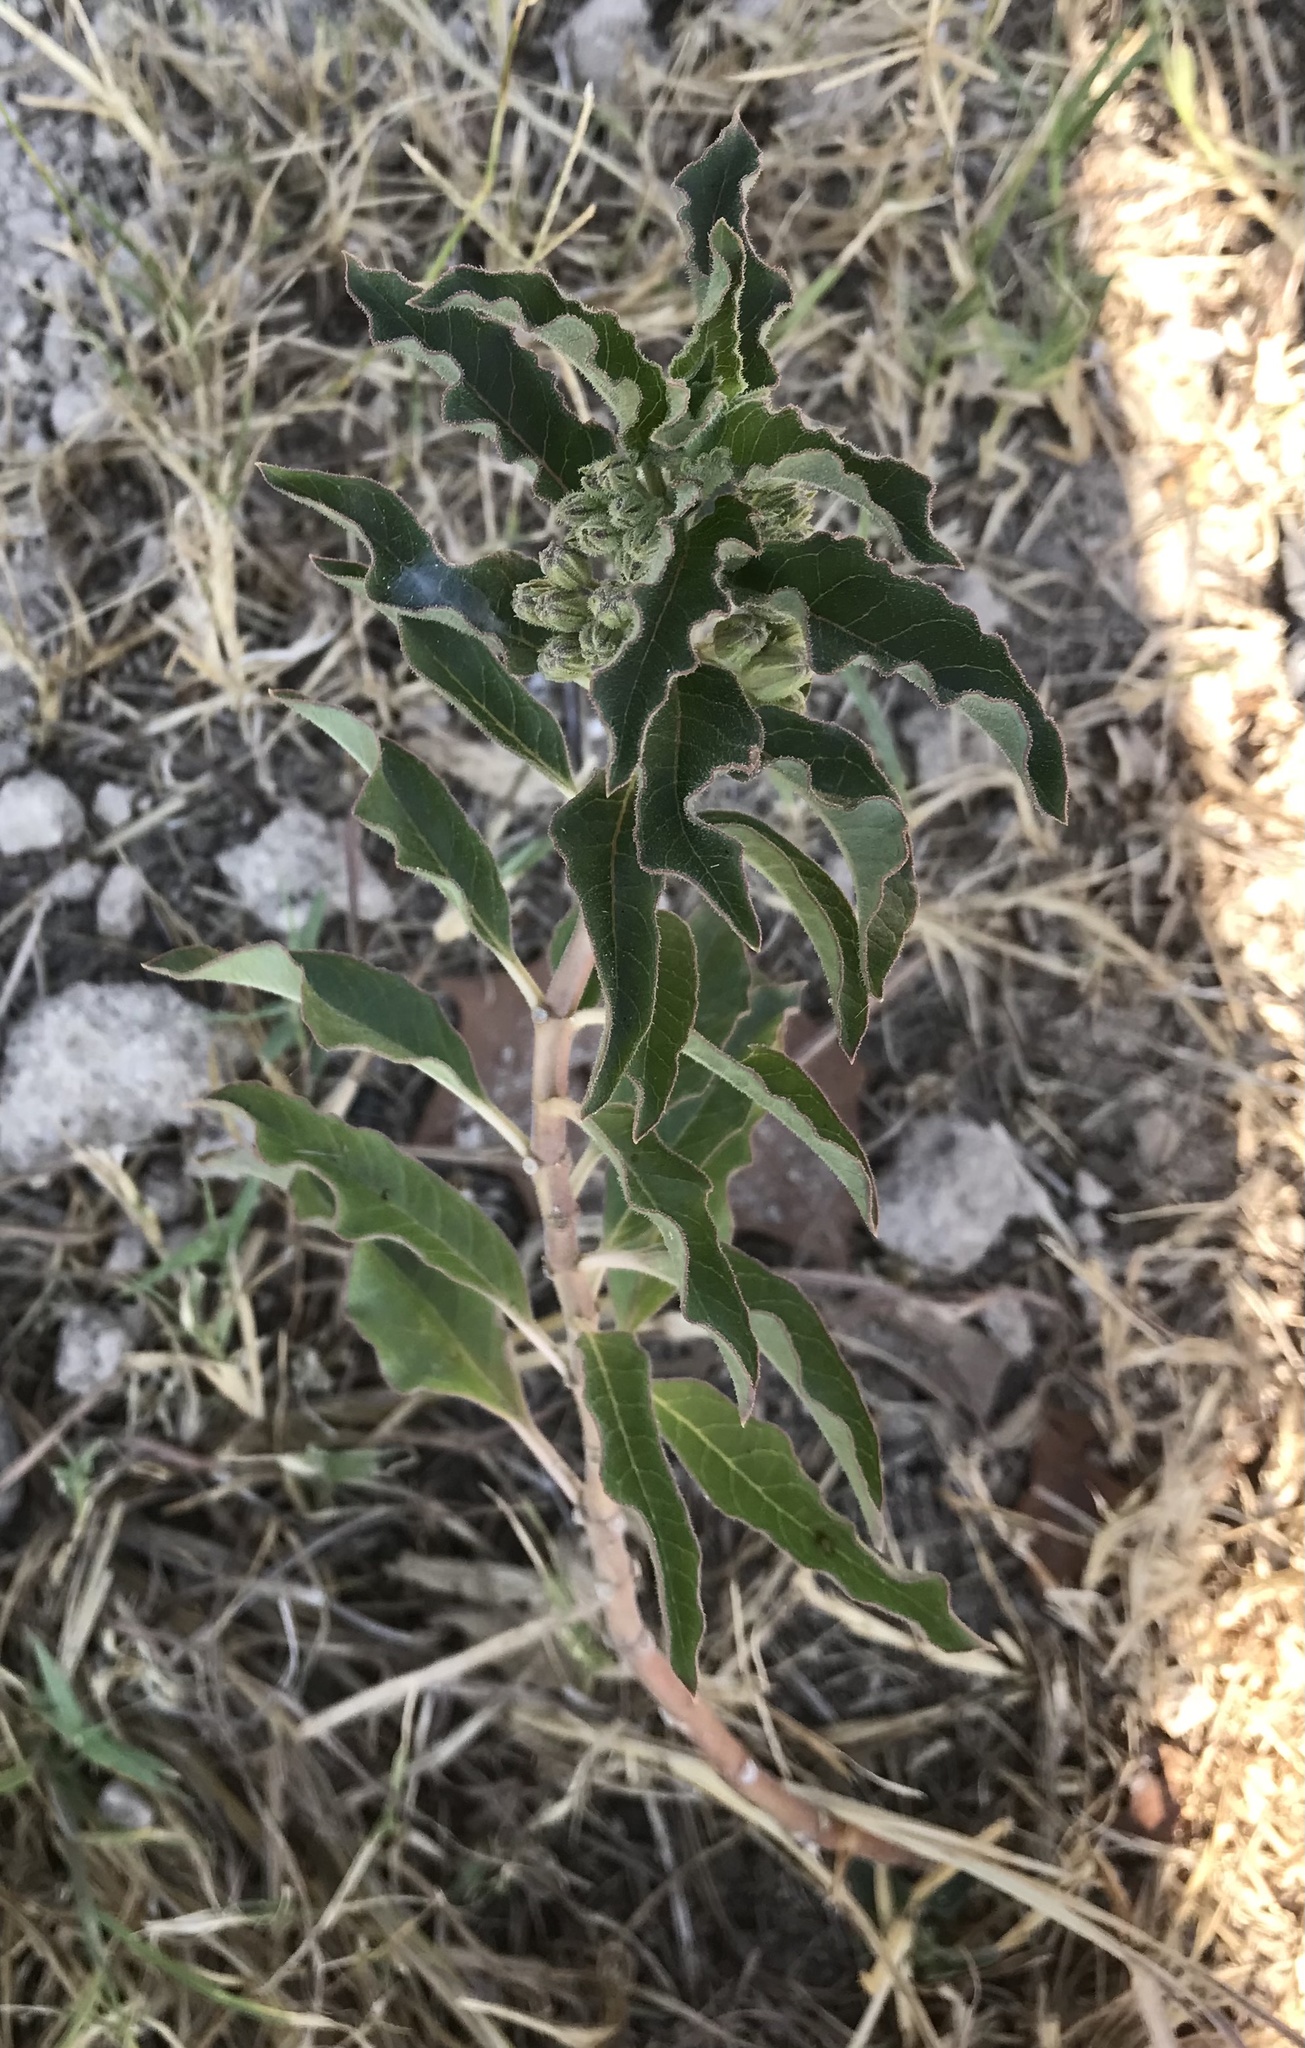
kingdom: Plantae
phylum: Tracheophyta
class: Magnoliopsida
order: Gentianales
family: Apocynaceae
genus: Asclepias
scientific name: Asclepias oenotheroides
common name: Zizotes milkweed
